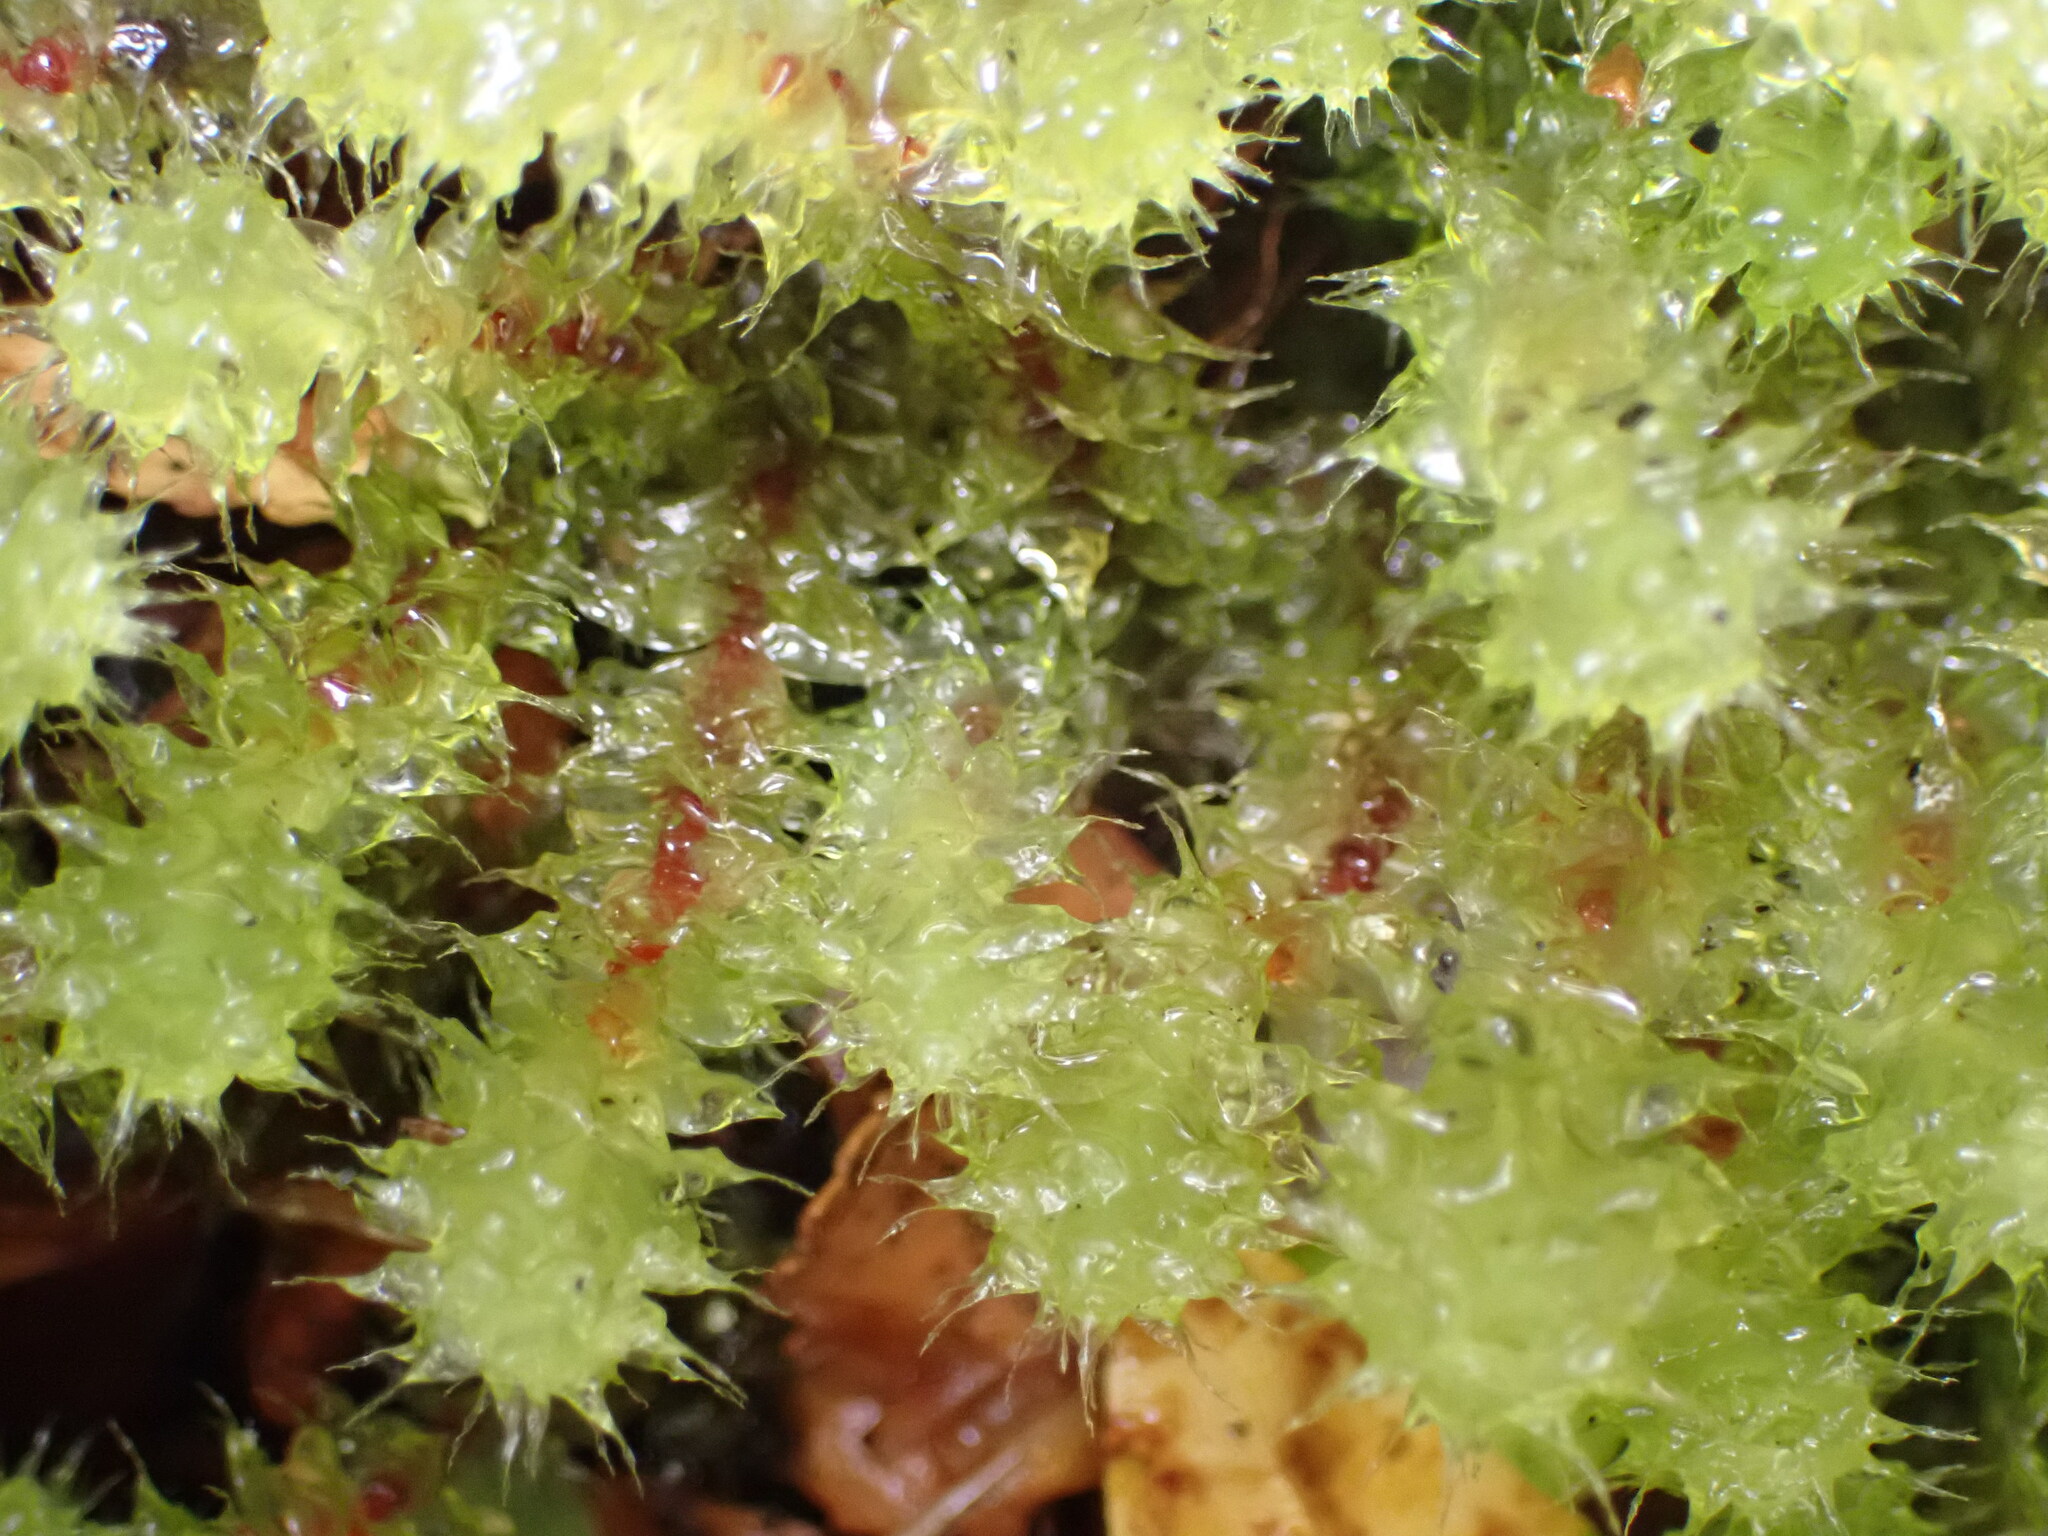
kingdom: Plantae
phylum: Bryophyta
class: Bryopsida
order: Ptychomniales
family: Ptychomniaceae
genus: Ptychomnion
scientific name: Ptychomnion aciculare
